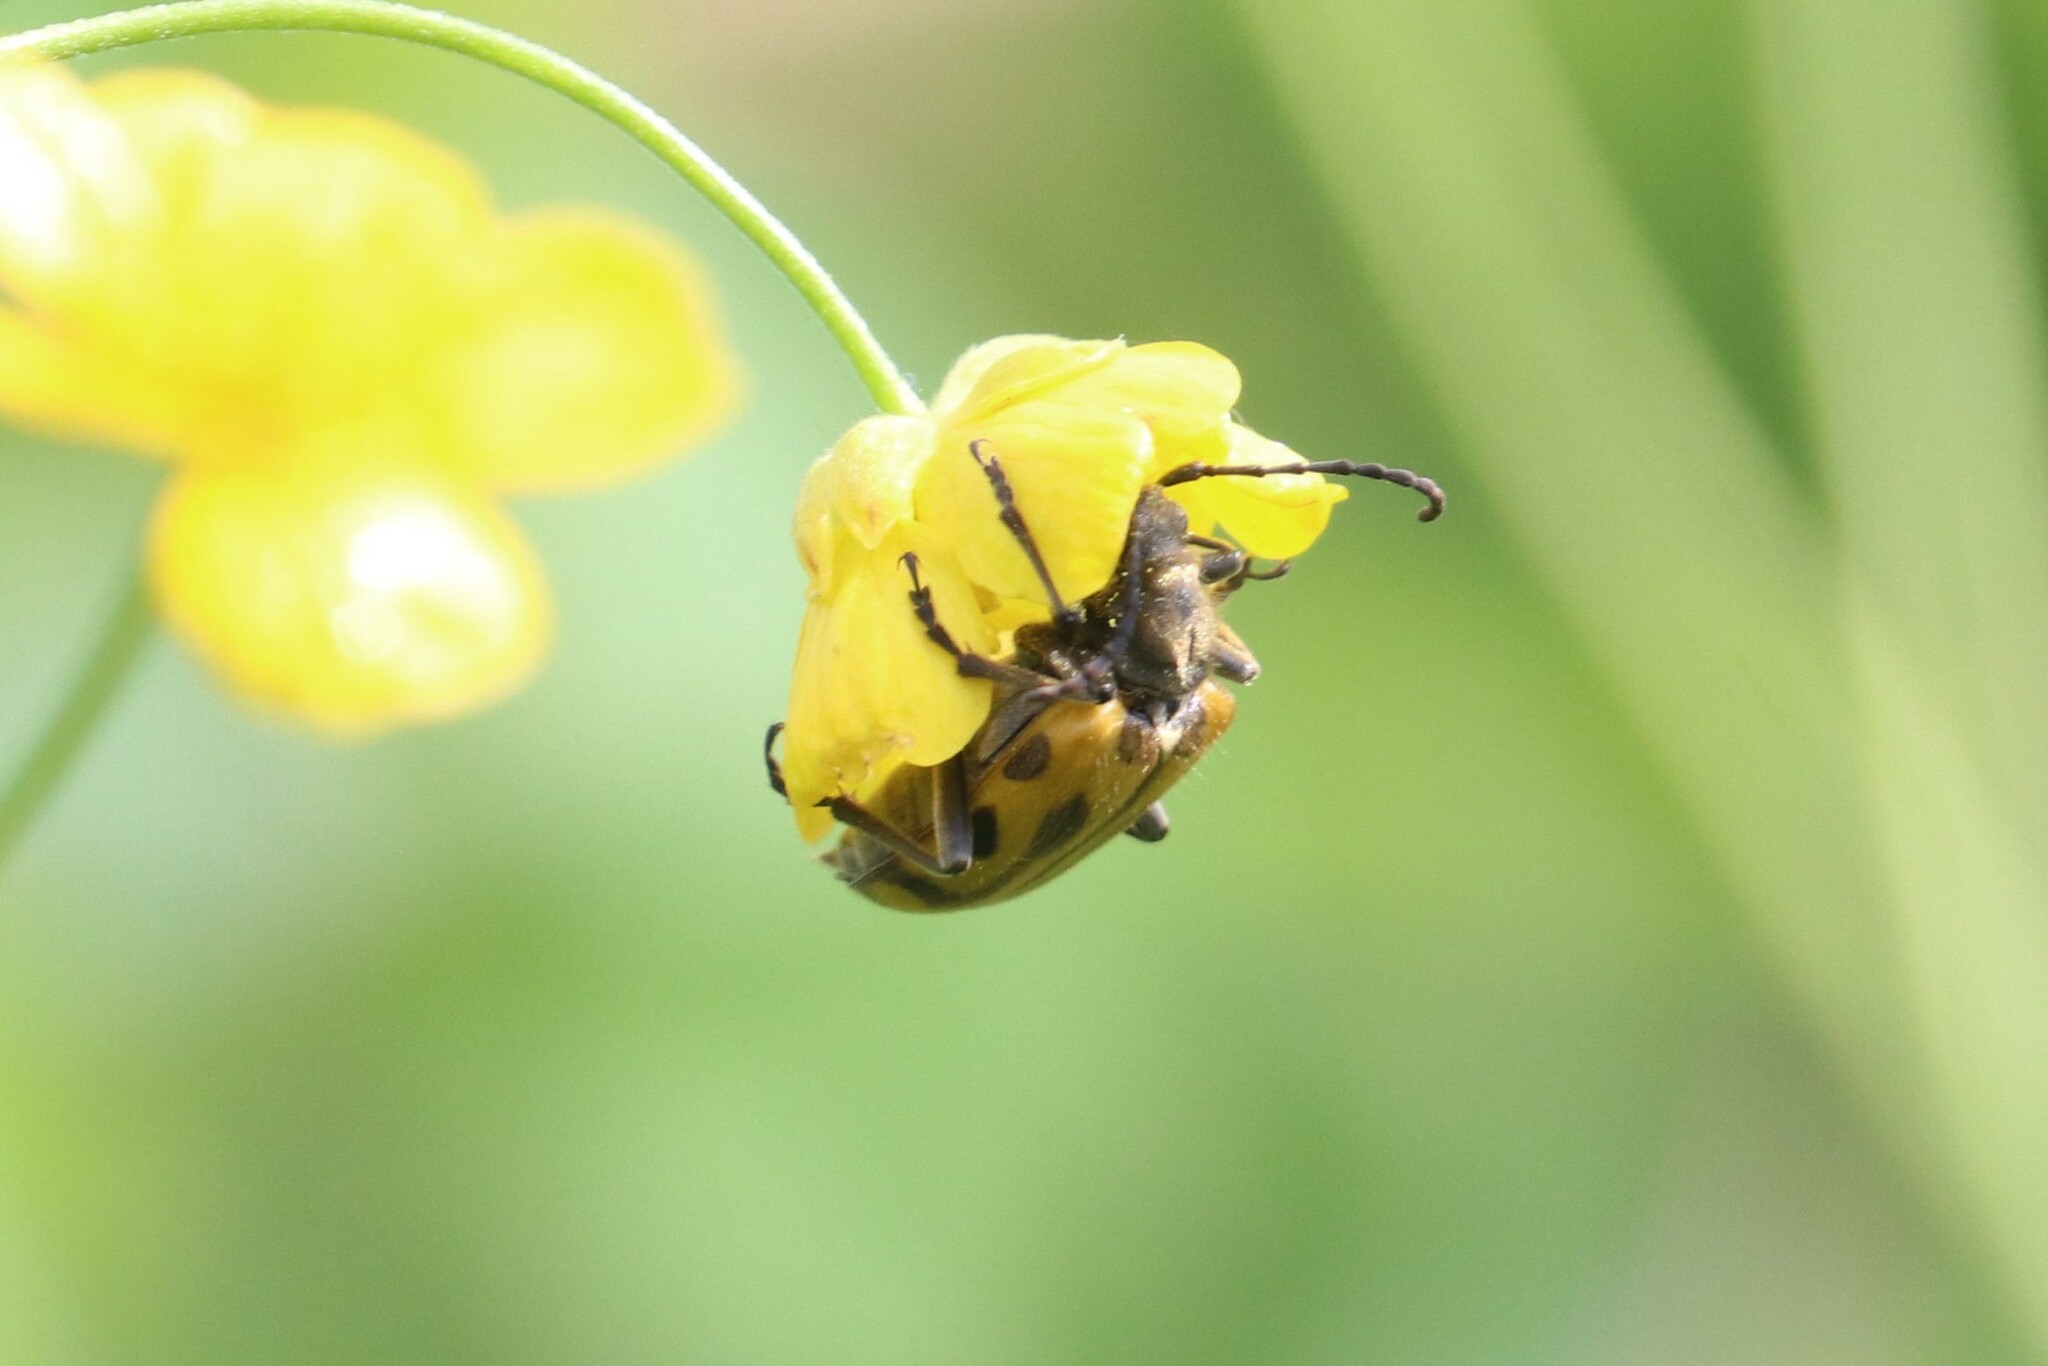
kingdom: Animalia
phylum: Arthropoda
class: Insecta
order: Coleoptera
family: Cerambycidae
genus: Brachyta
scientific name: Brachyta interrogationis
